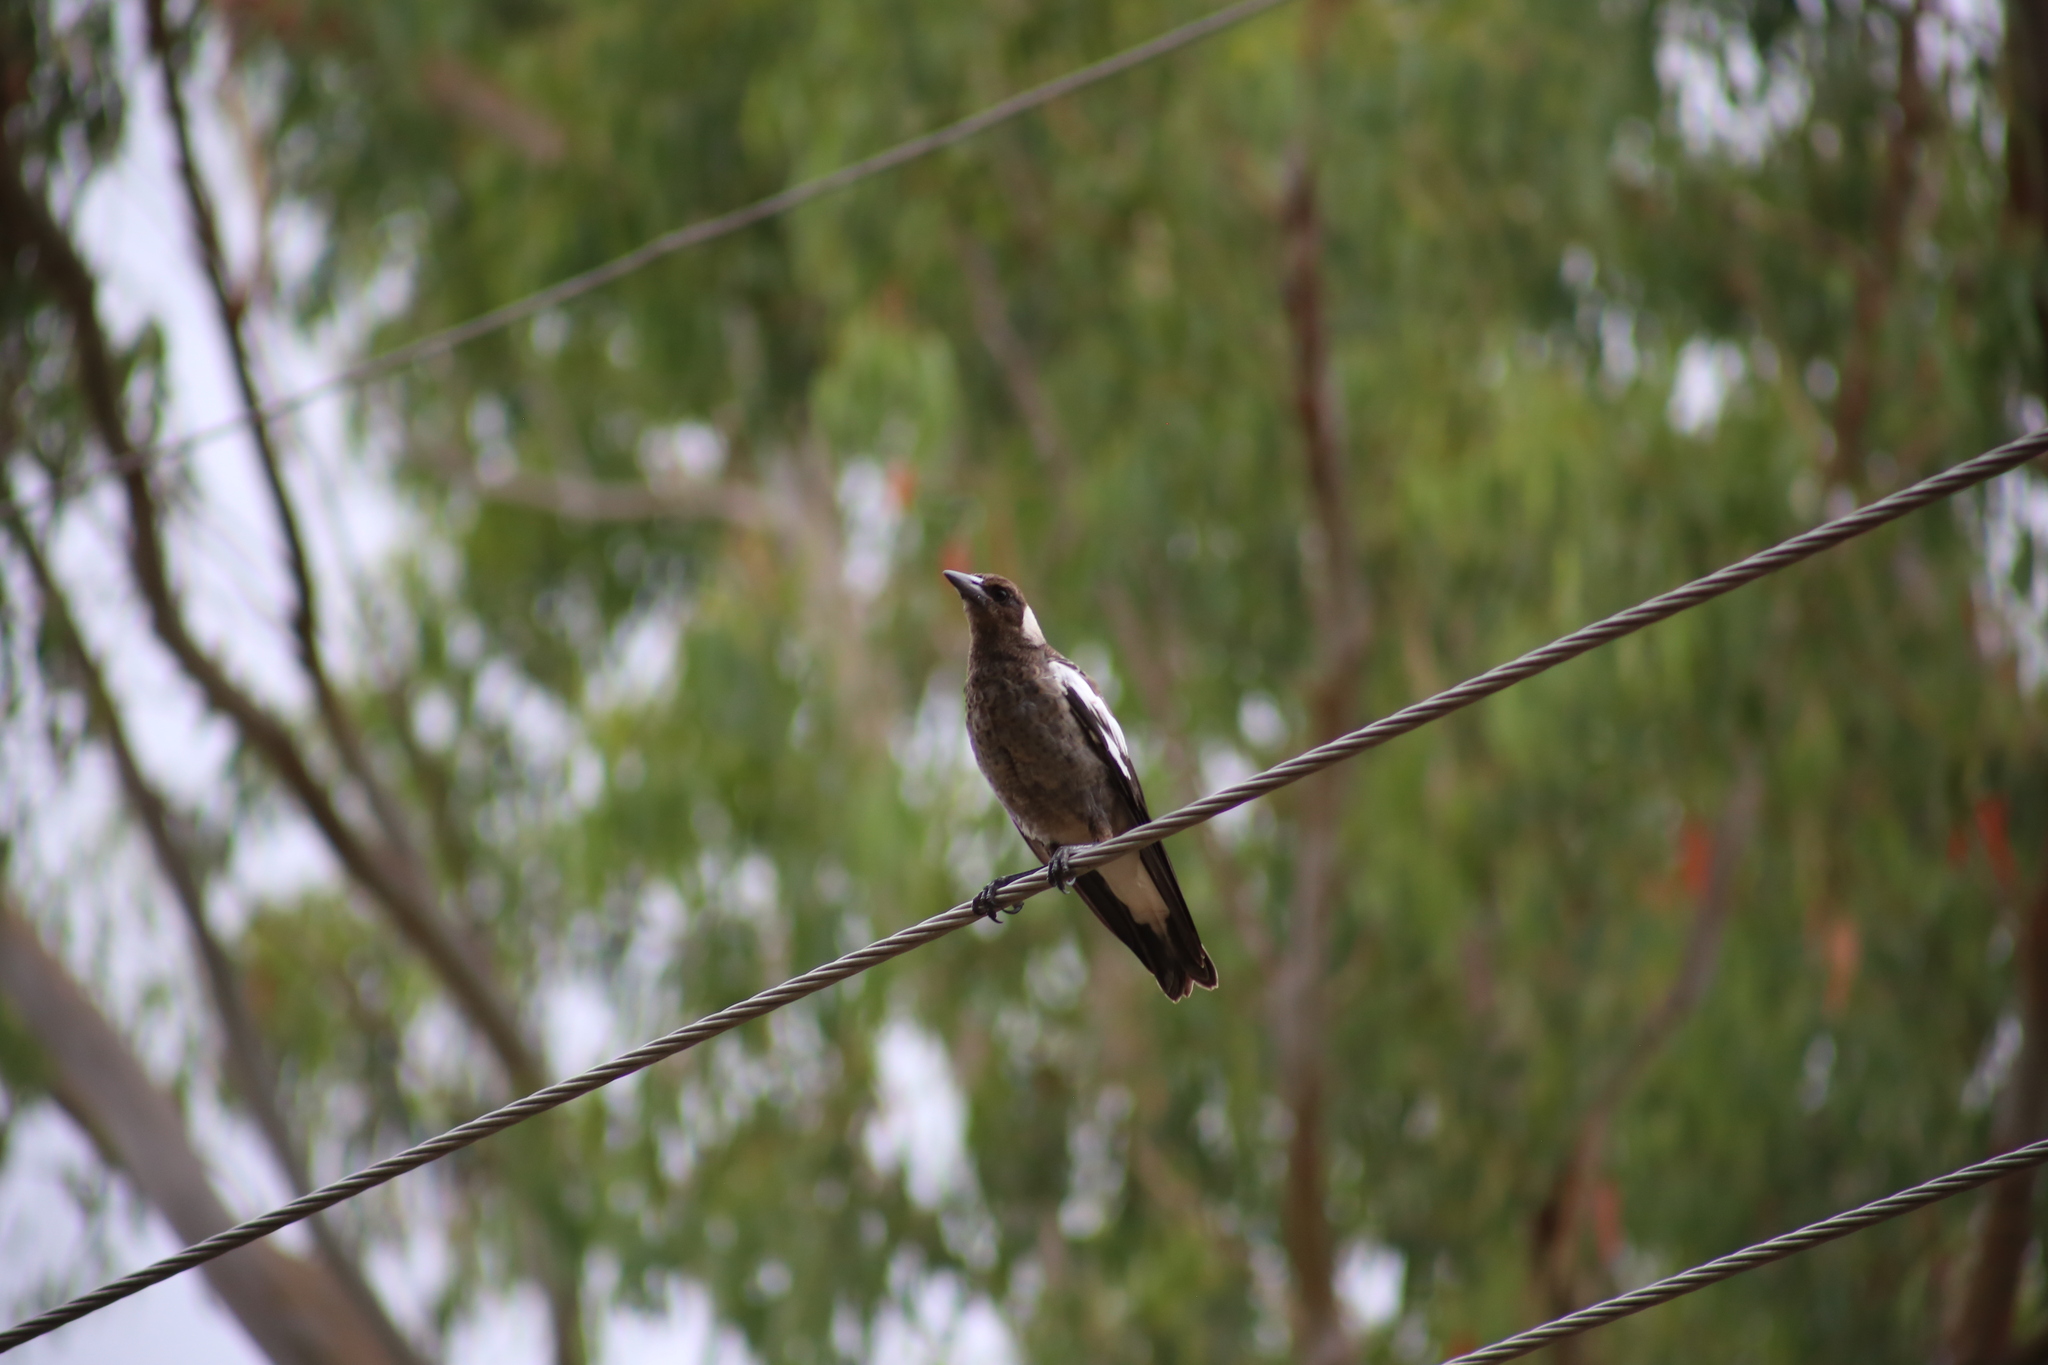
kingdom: Animalia
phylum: Chordata
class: Aves
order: Passeriformes
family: Cracticidae
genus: Gymnorhina
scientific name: Gymnorhina tibicen
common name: Australian magpie
